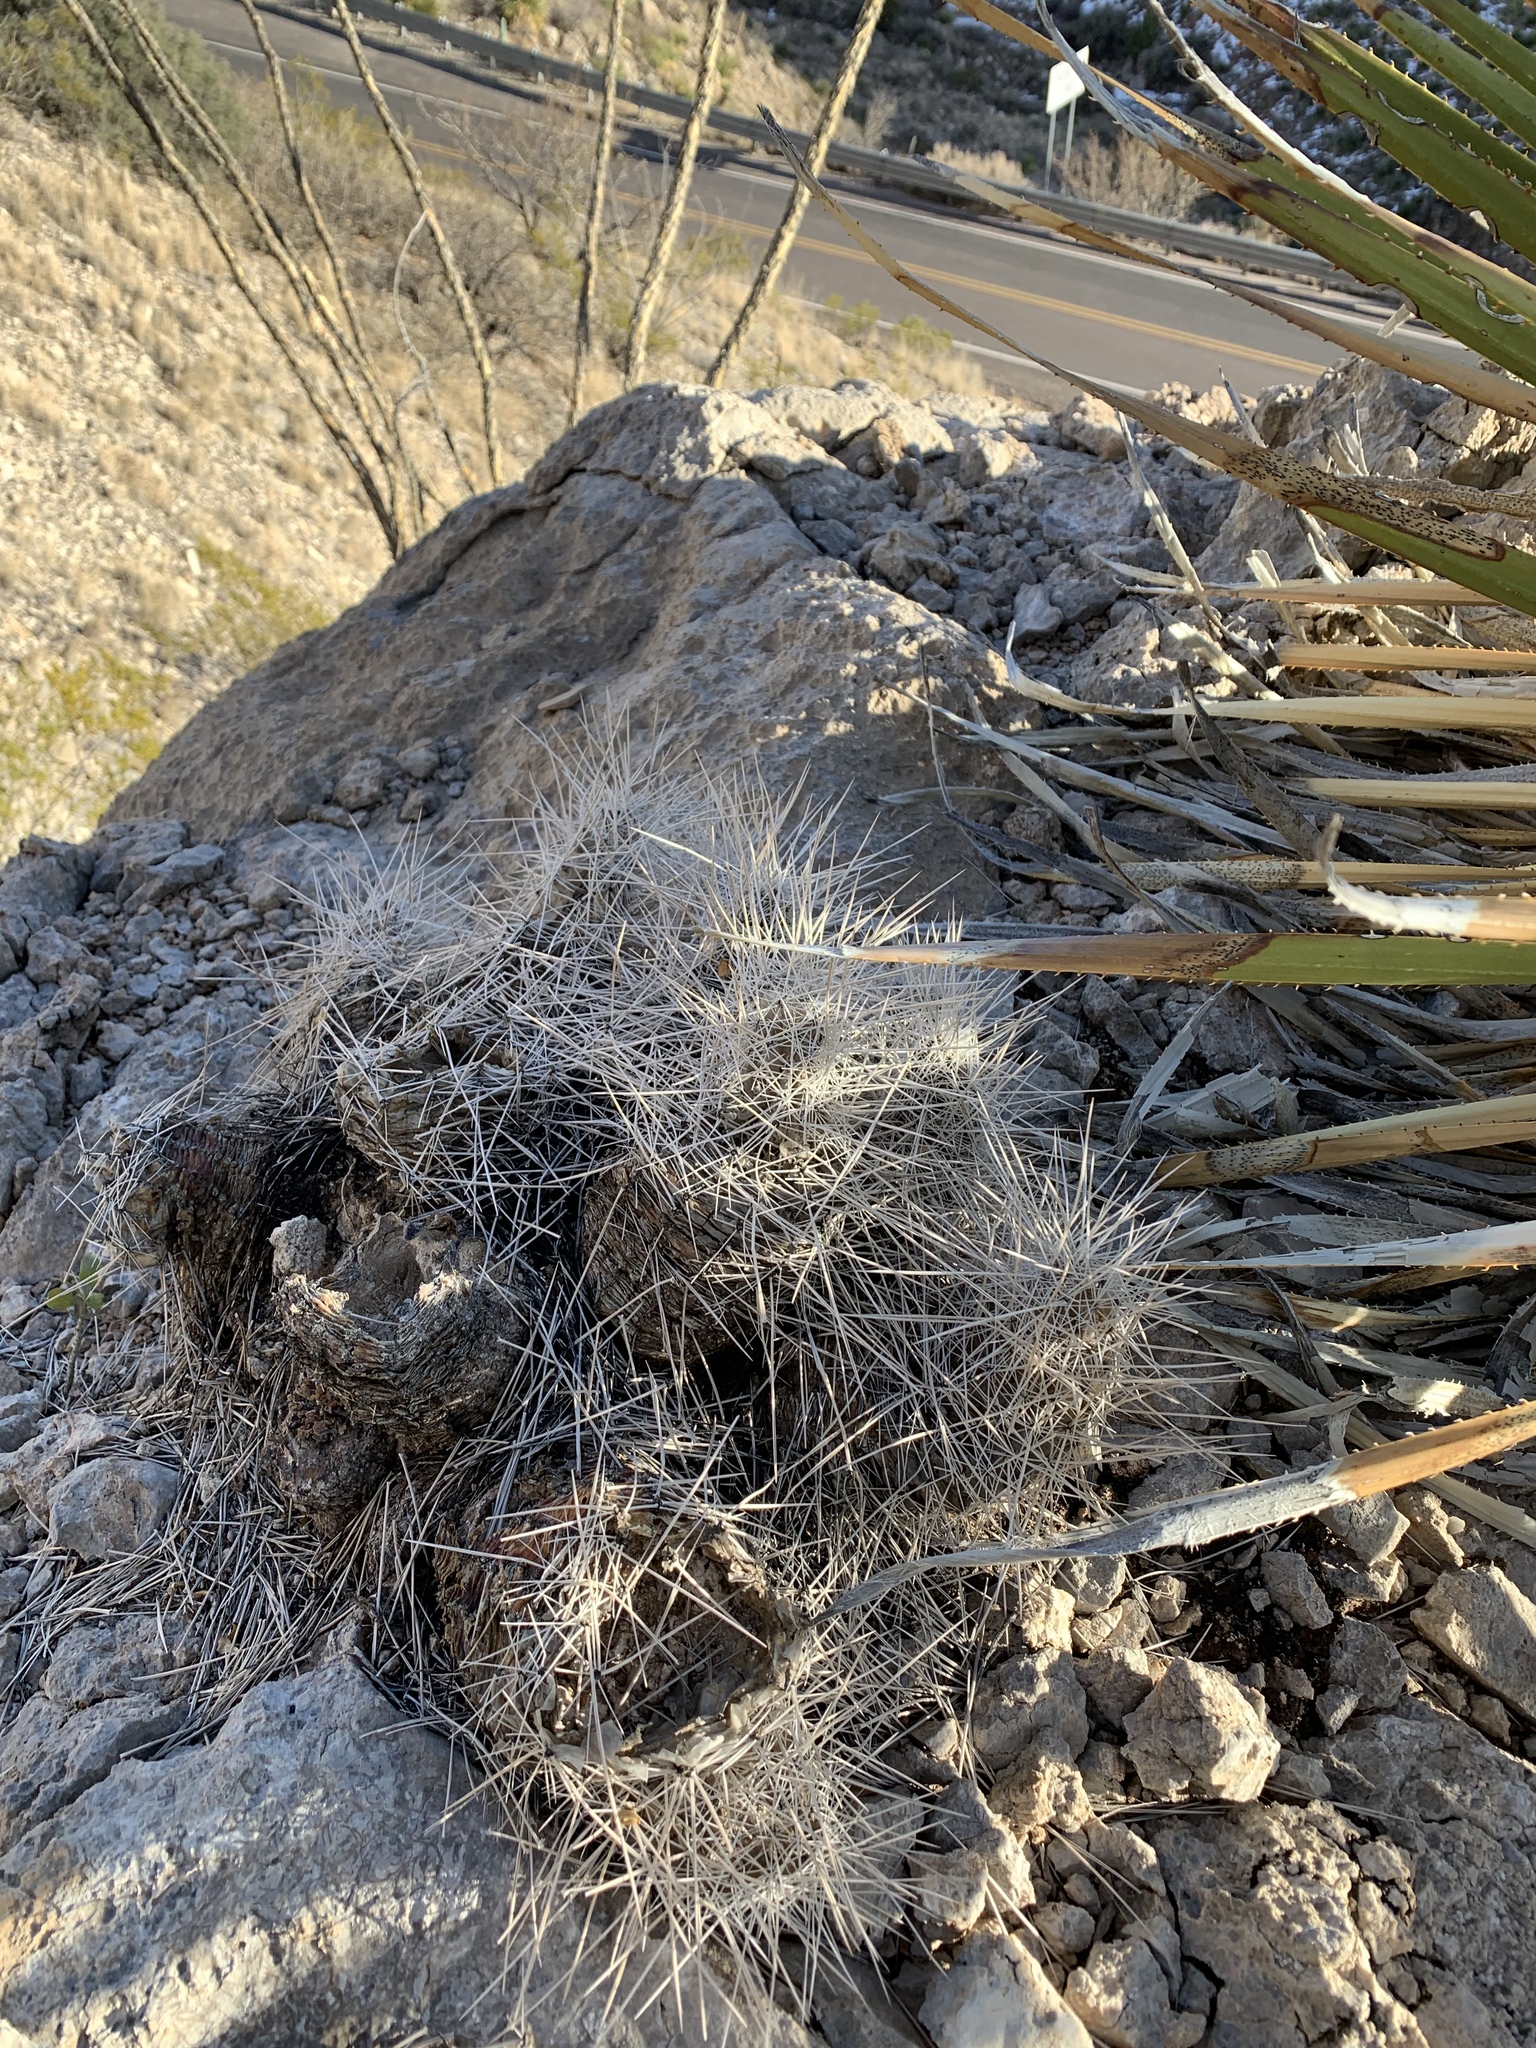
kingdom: Plantae
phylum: Tracheophyta
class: Magnoliopsida
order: Caryophyllales
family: Cactaceae
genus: Echinocereus
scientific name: Echinocereus stramineus
